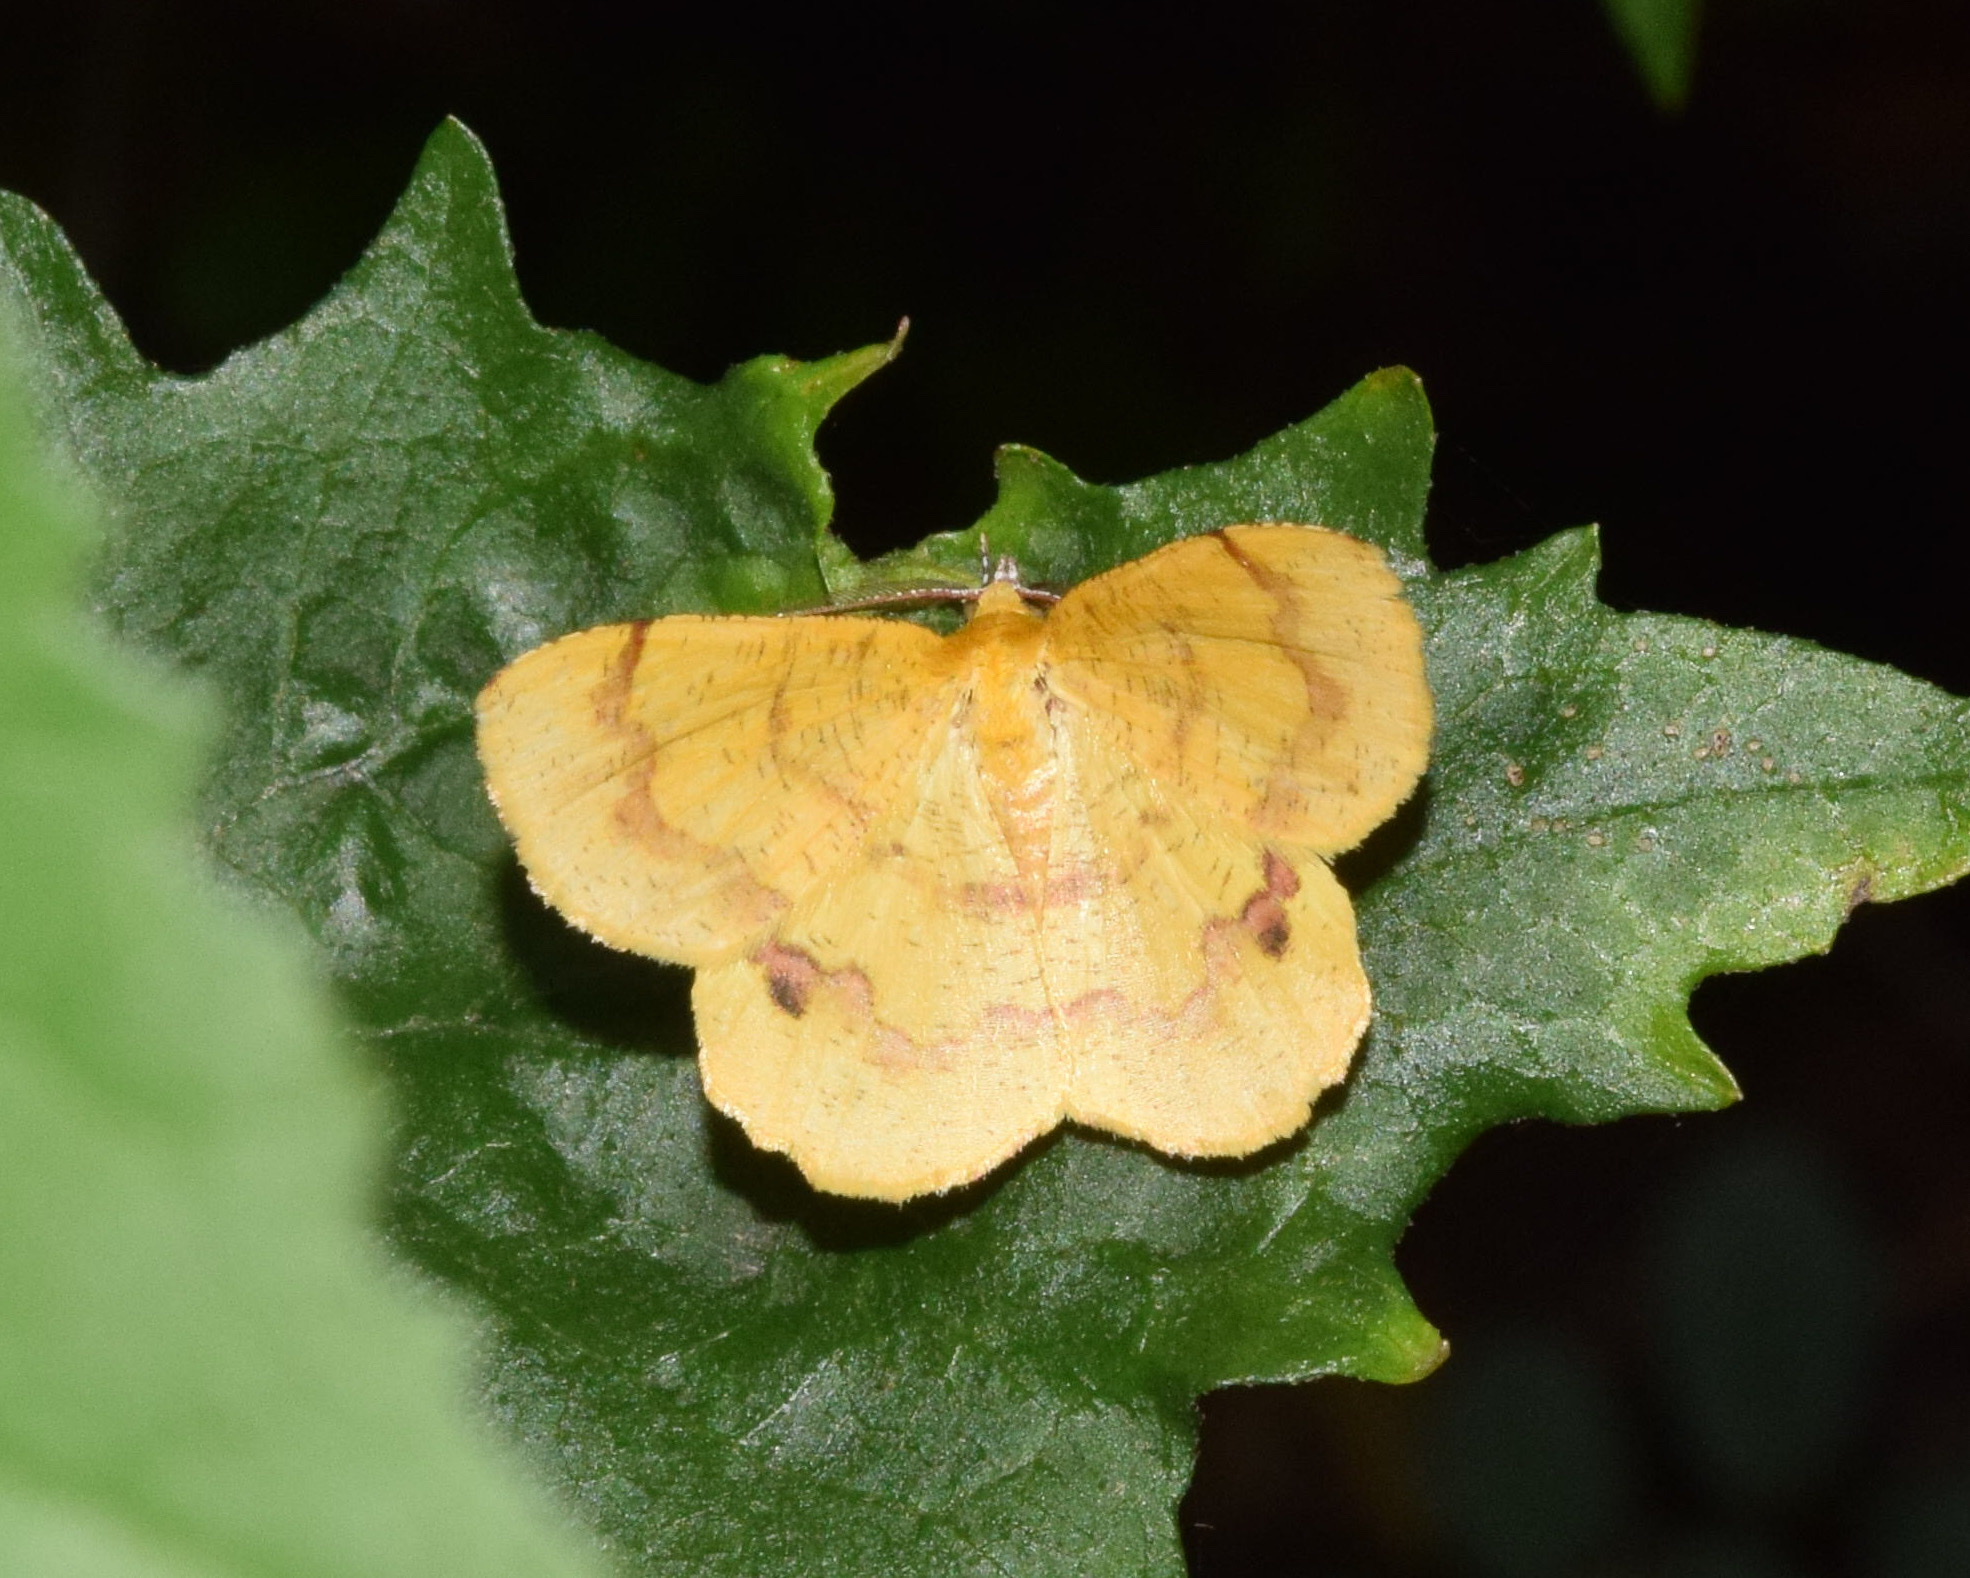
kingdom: Animalia
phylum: Arthropoda
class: Insecta
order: Lepidoptera
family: Geometridae
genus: Erastria
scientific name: Erastria leucicolor
